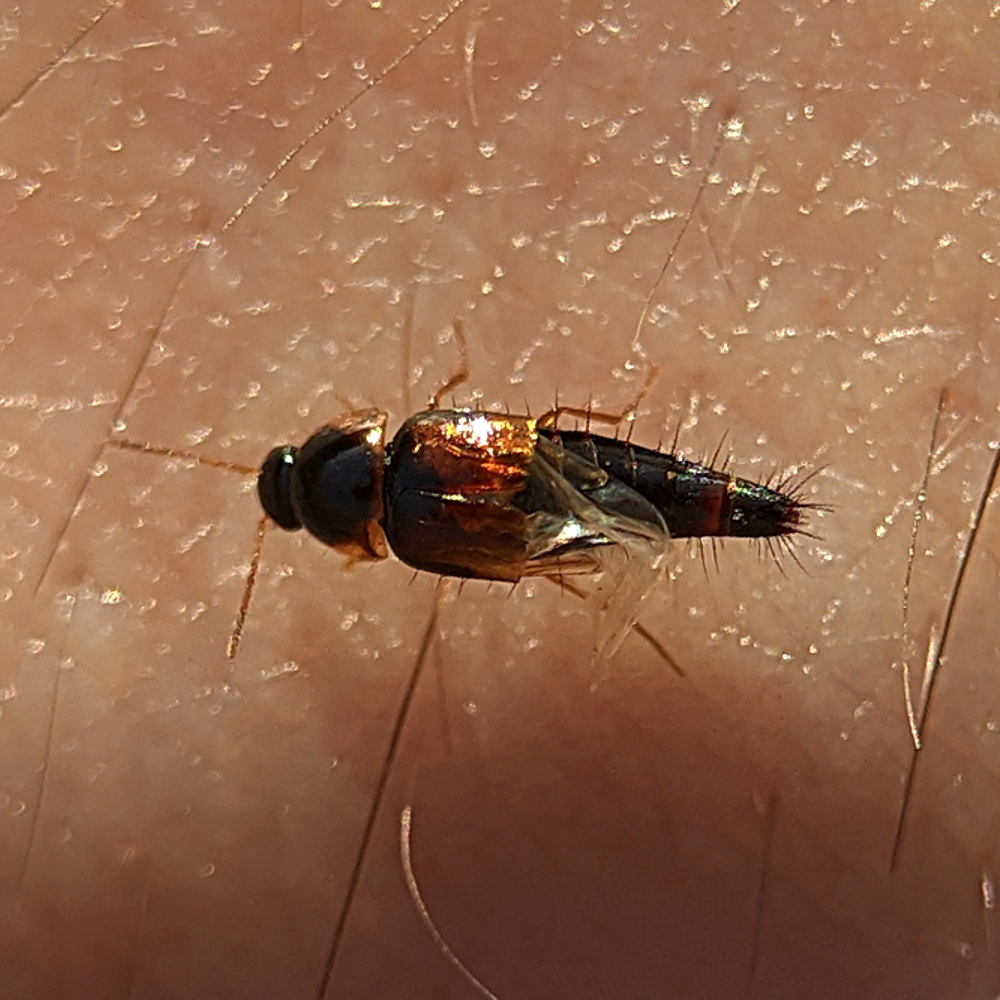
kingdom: Animalia
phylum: Arthropoda
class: Insecta
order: Coleoptera
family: Staphylinidae
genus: Tachyporus
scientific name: Tachyporus hypnorum
